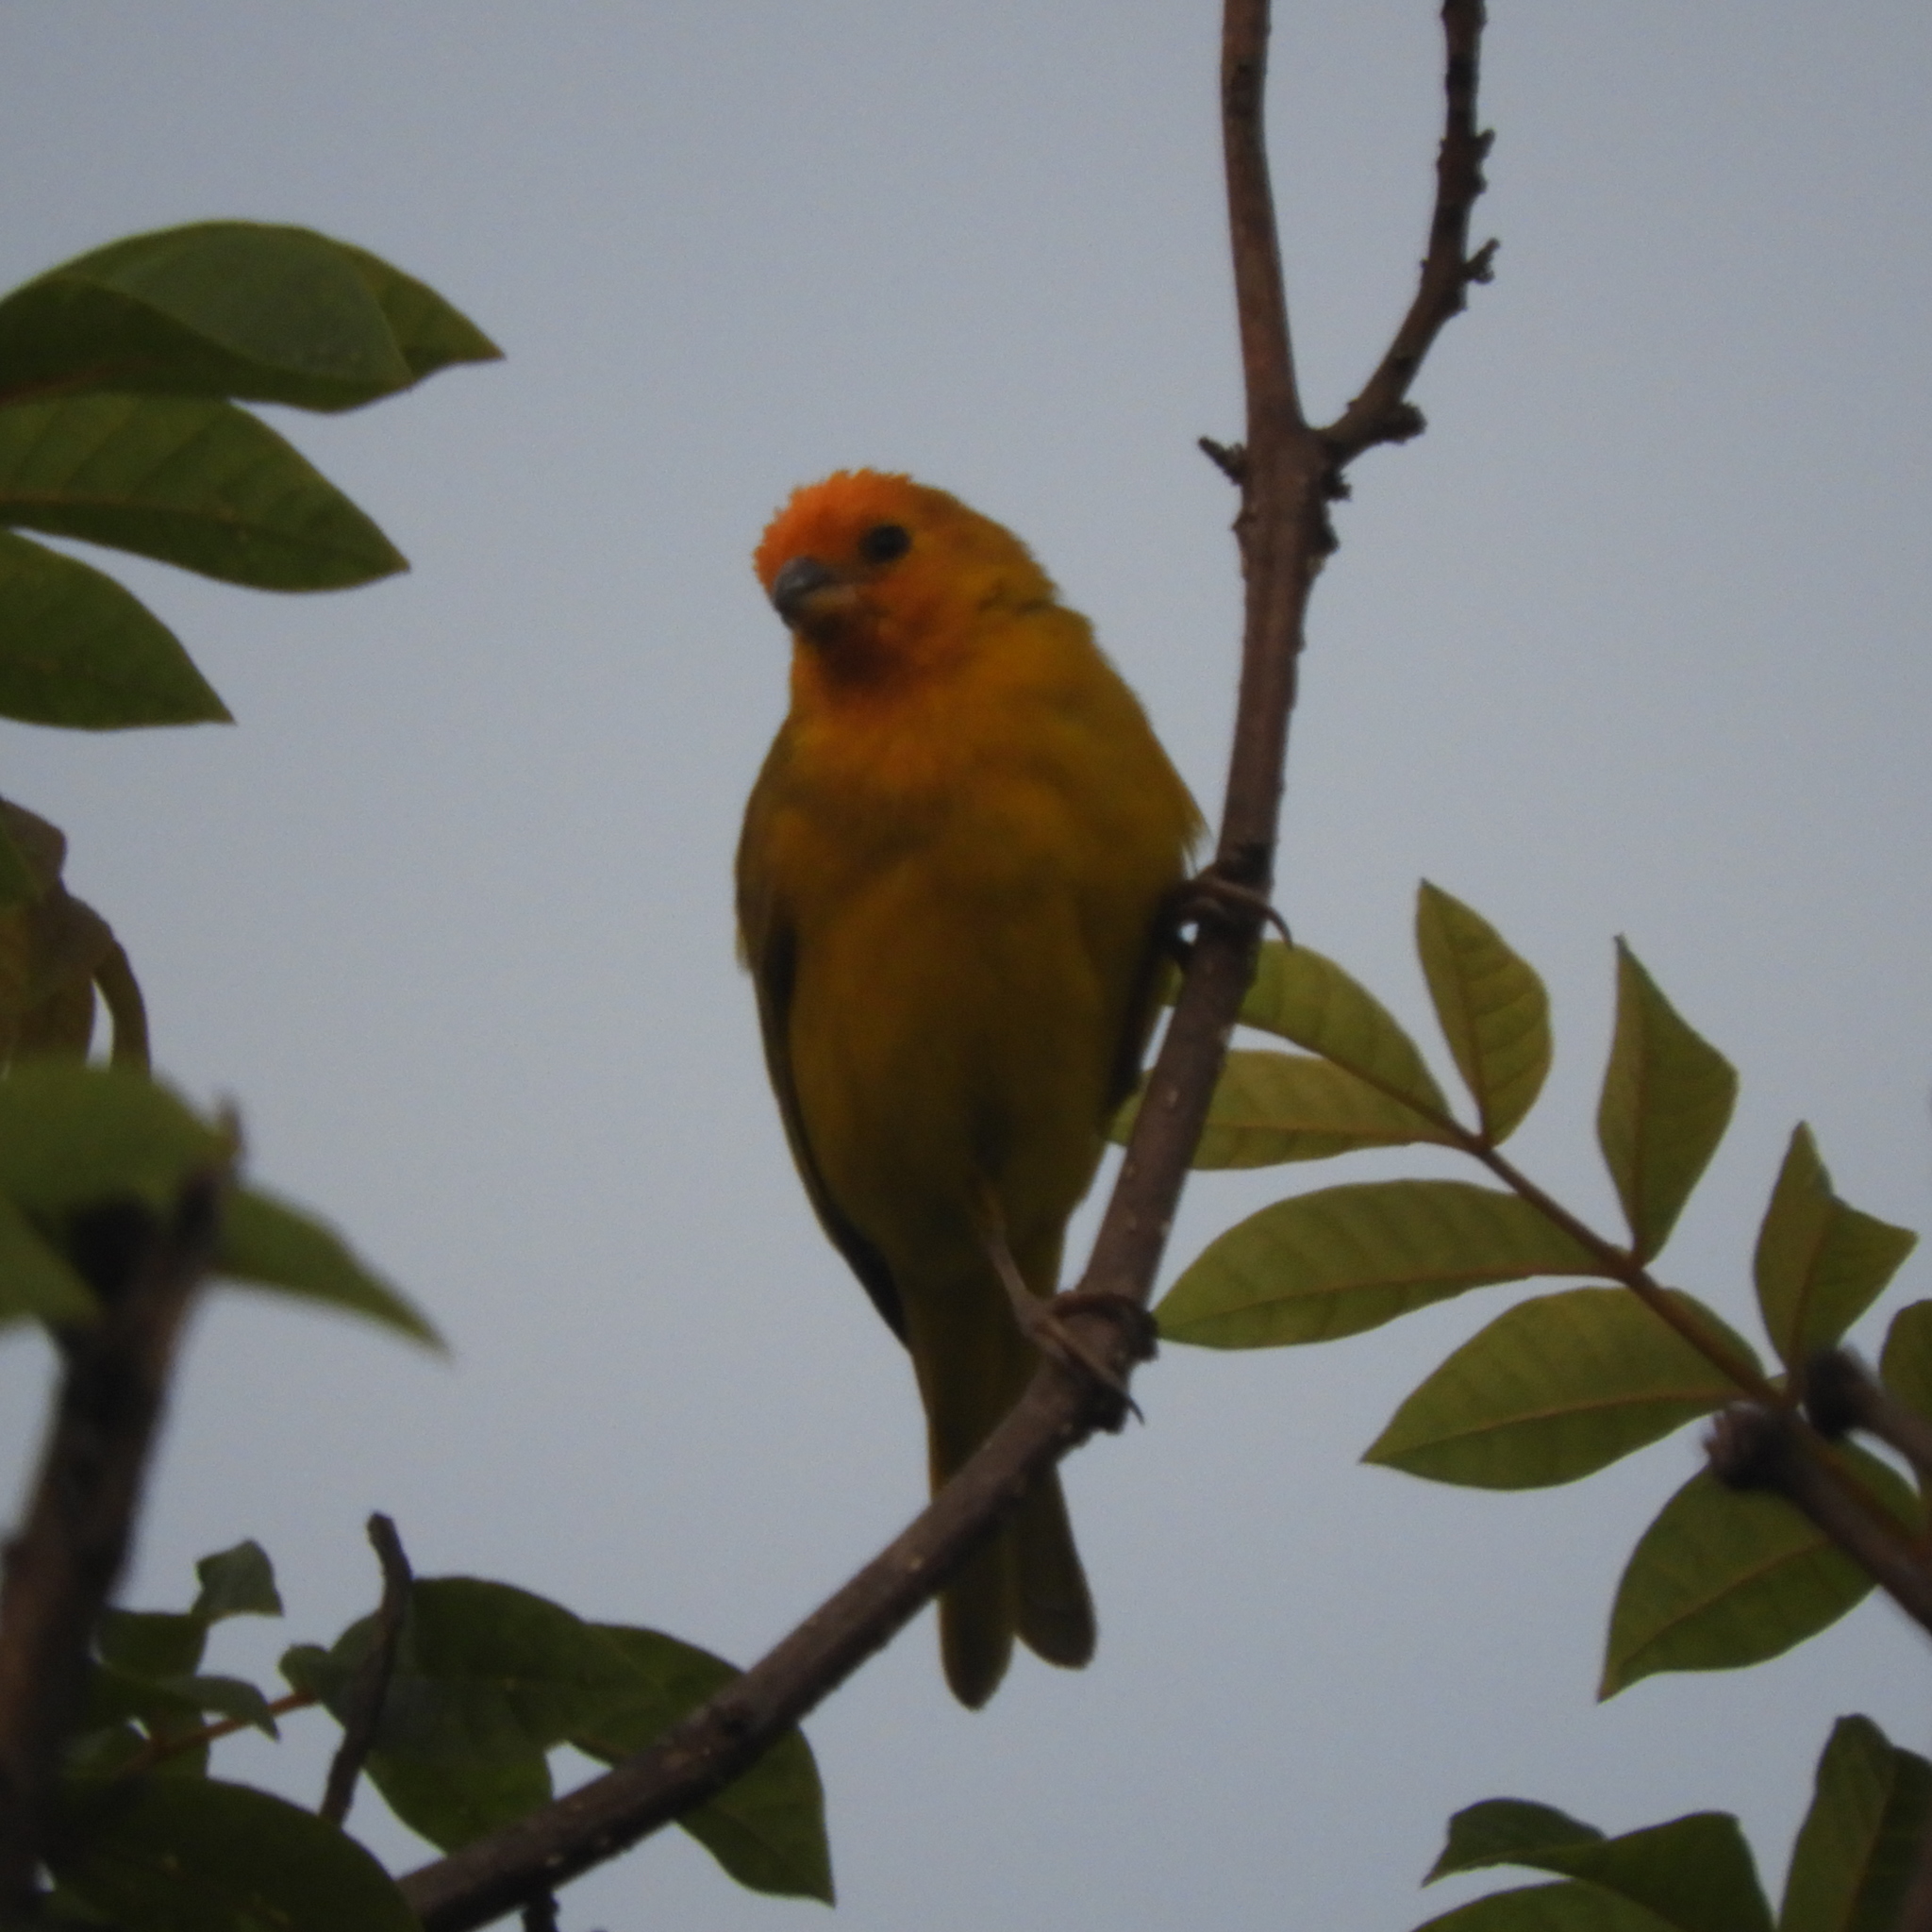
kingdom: Animalia
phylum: Chordata
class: Aves
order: Passeriformes
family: Thraupidae
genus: Sicalis
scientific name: Sicalis flaveola
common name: Saffron finch
